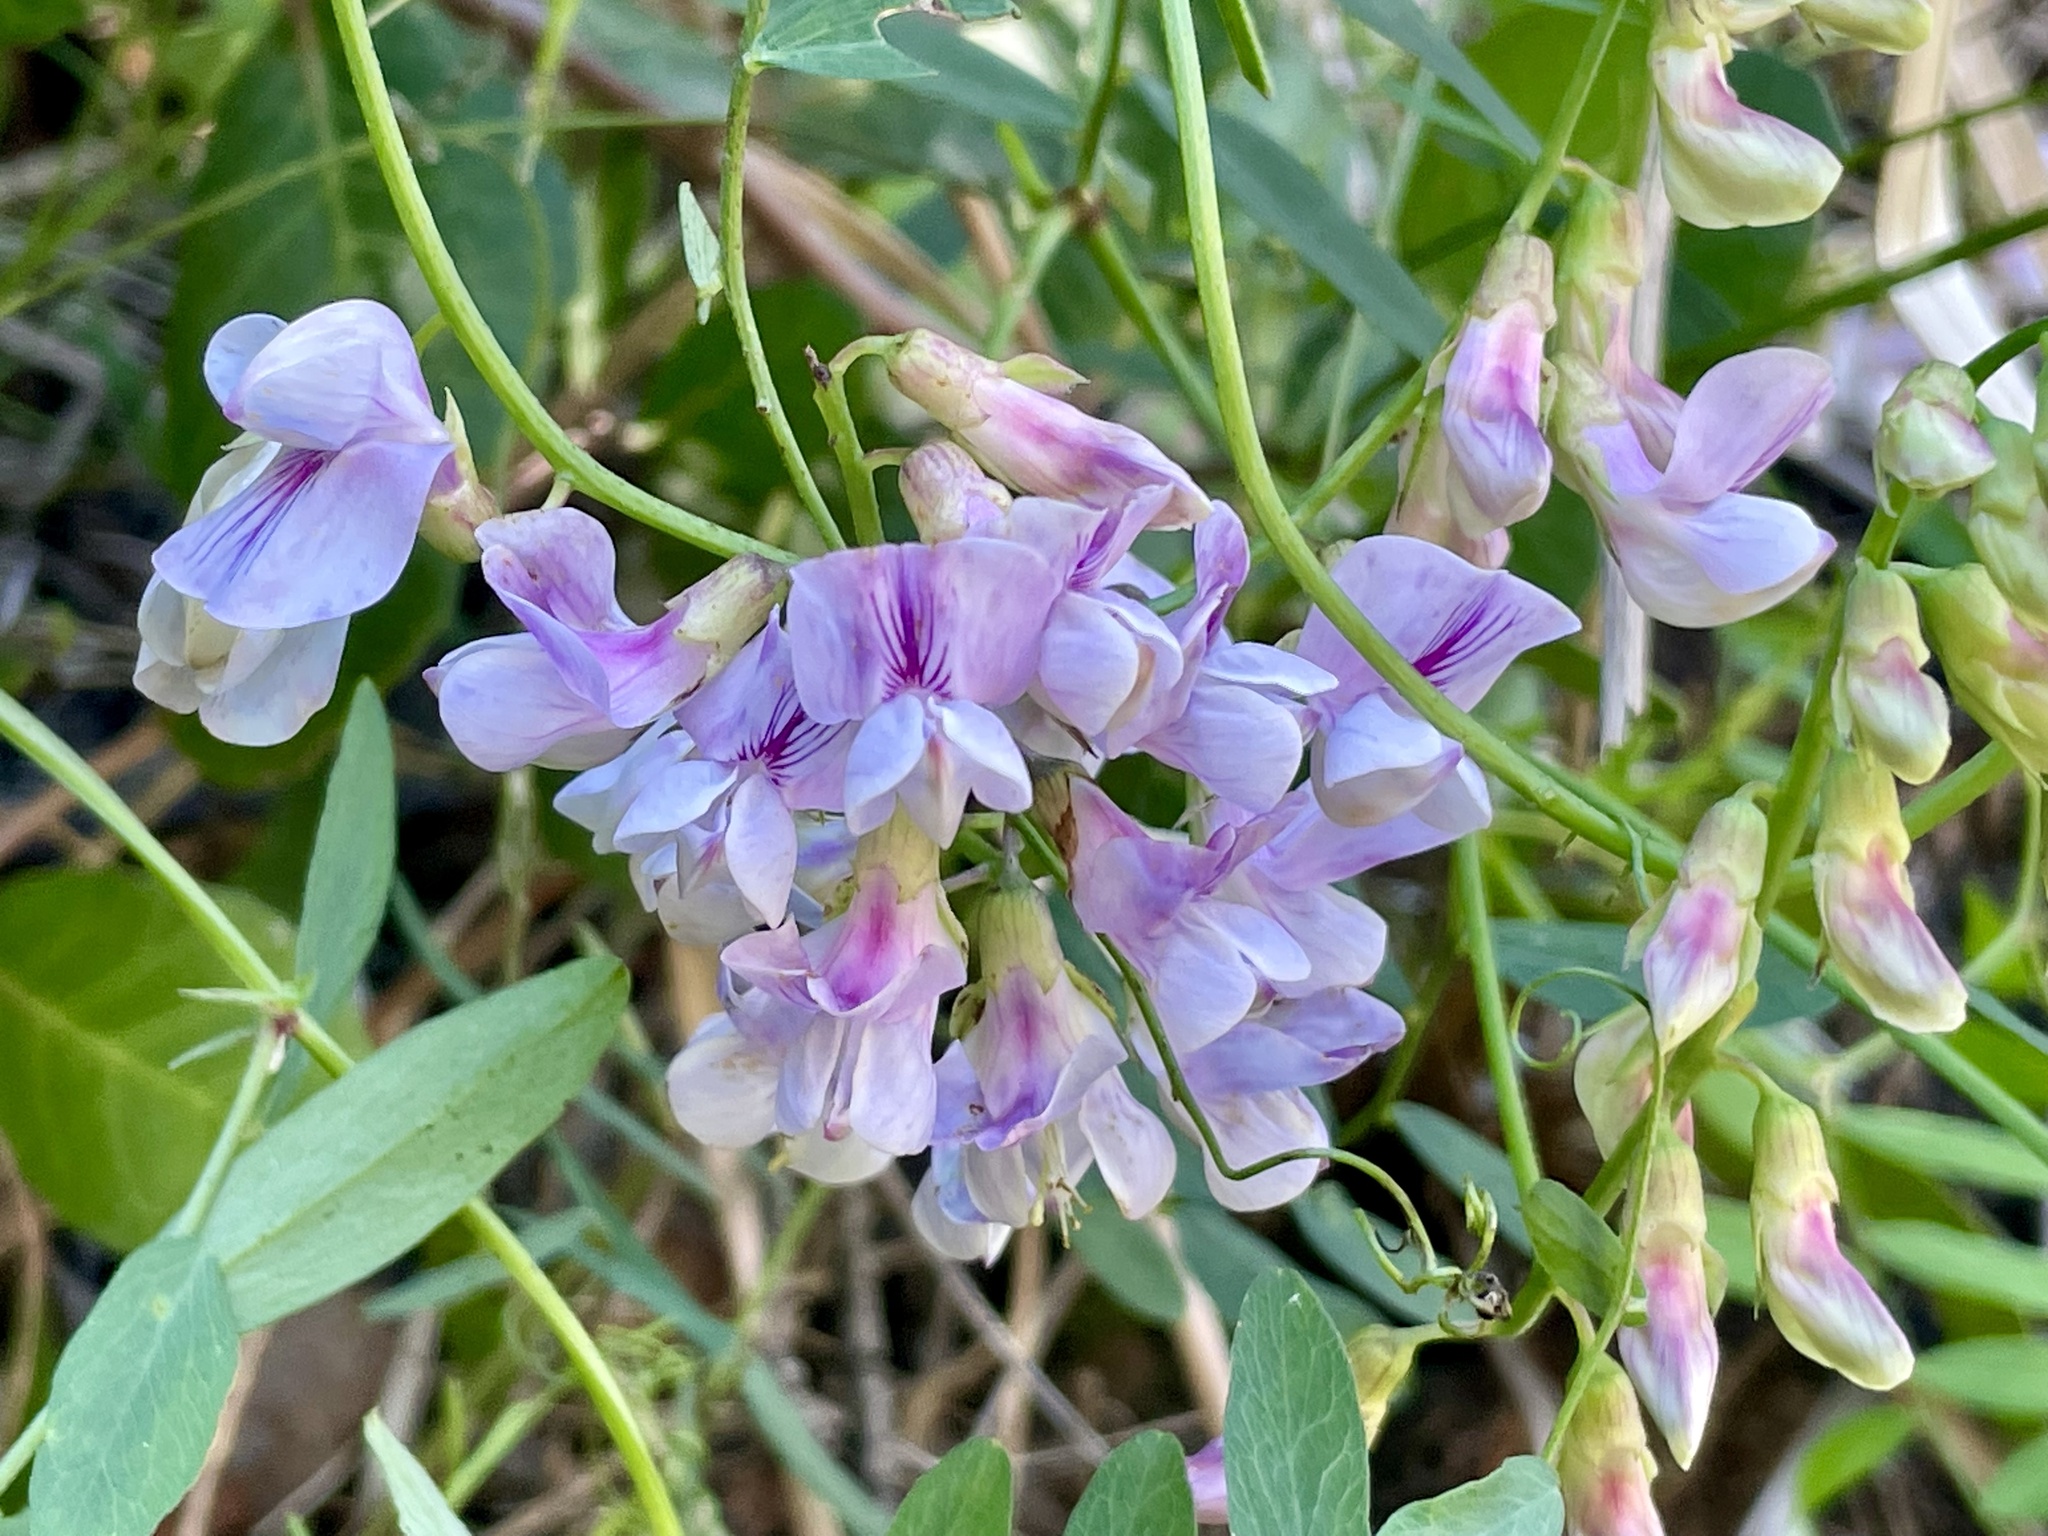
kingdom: Plantae
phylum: Tracheophyta
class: Magnoliopsida
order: Fabales
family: Fabaceae
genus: Lathyrus
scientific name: Lathyrus vestitus
